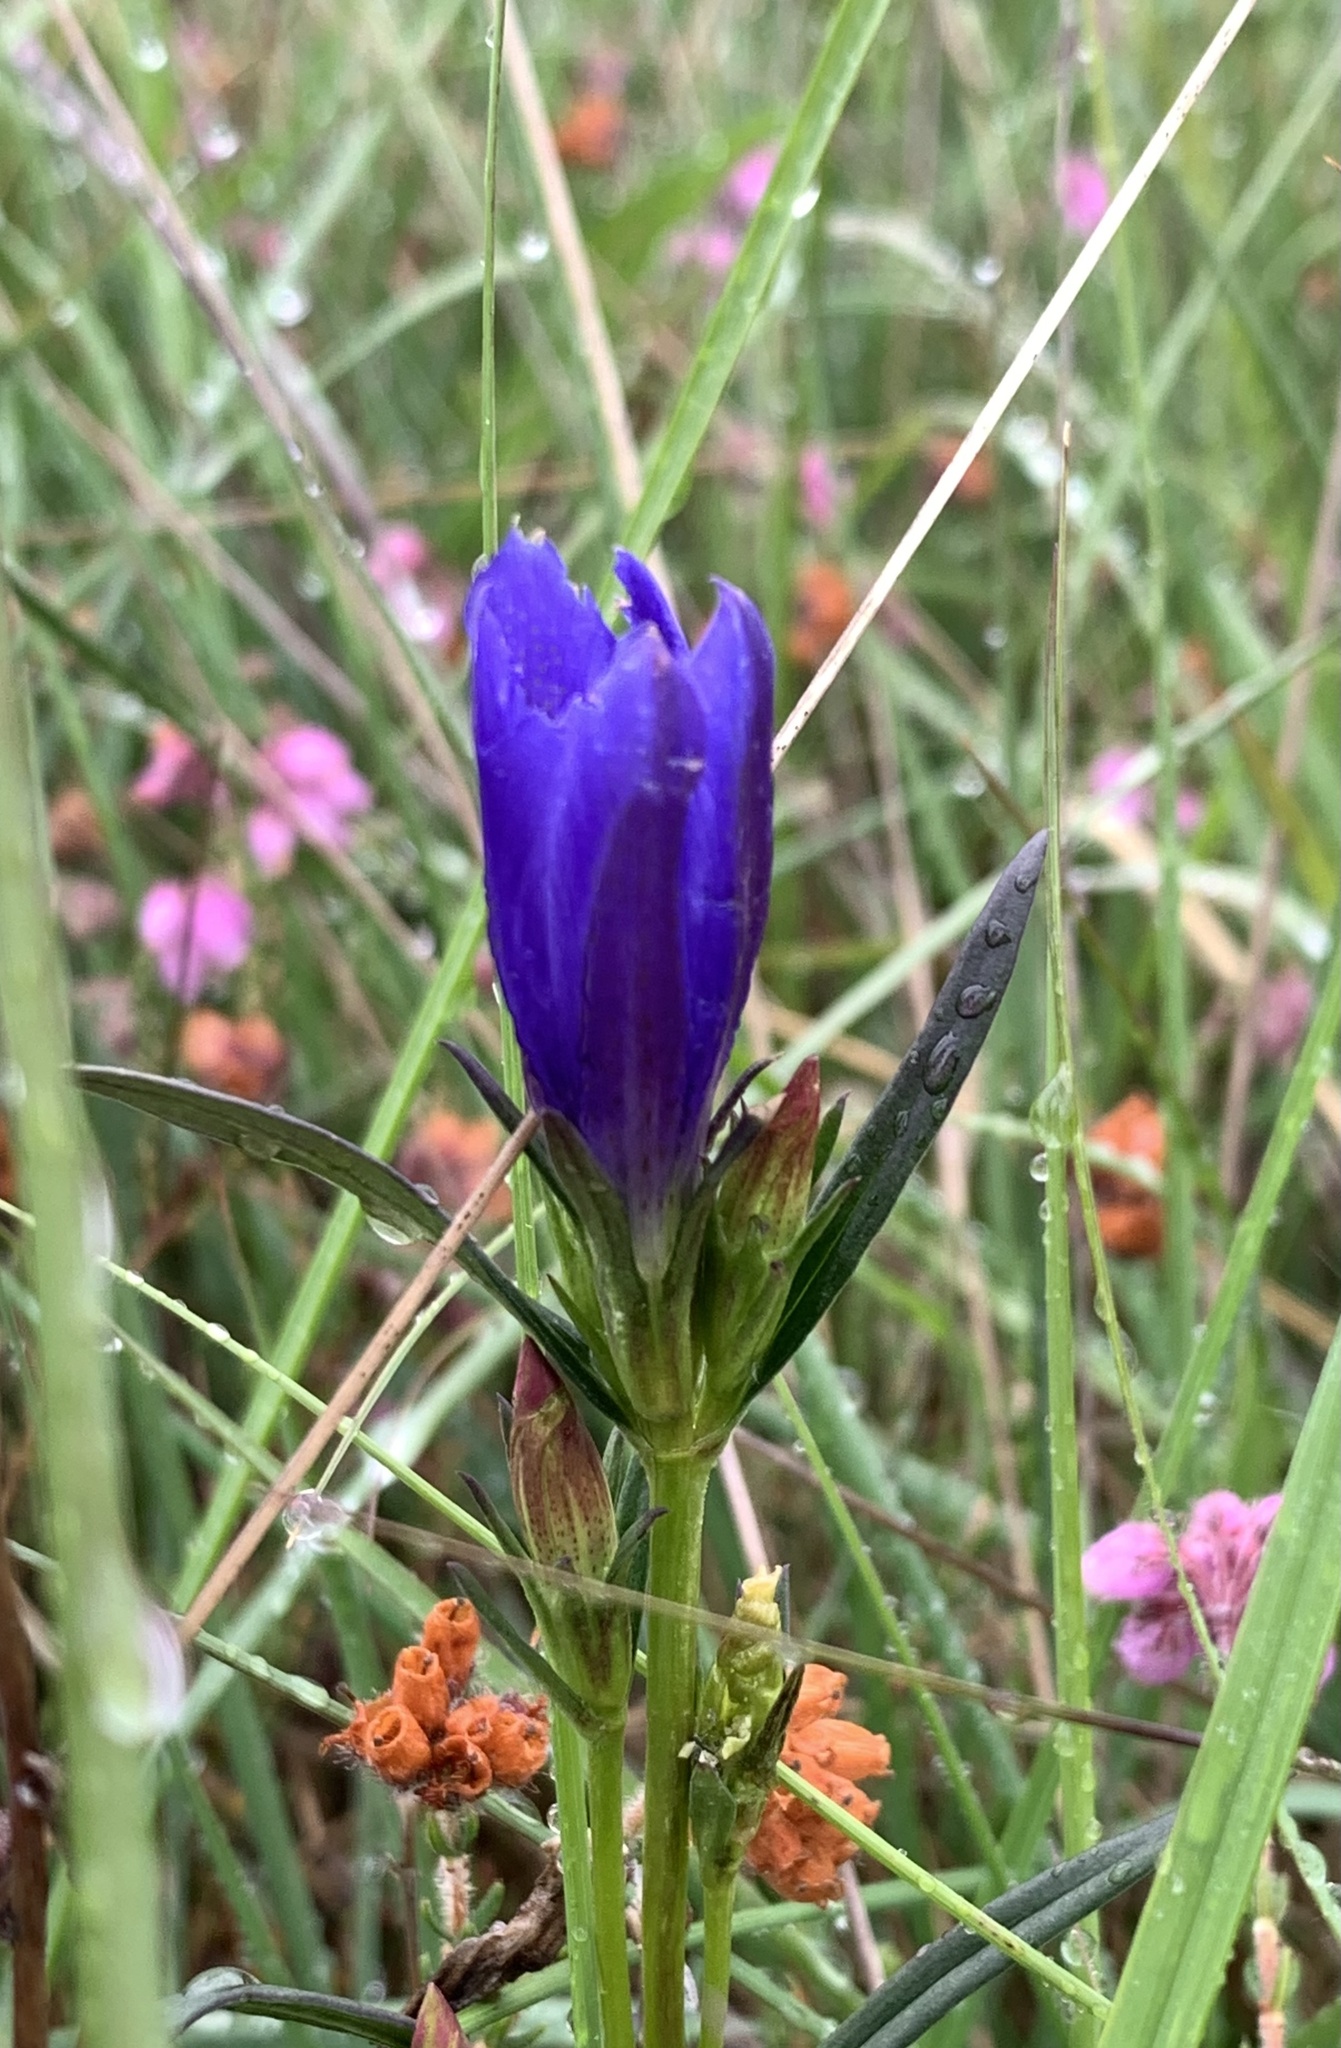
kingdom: Plantae
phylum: Tracheophyta
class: Magnoliopsida
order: Gentianales
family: Gentianaceae
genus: Gentiana
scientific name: Gentiana pneumonanthe
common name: Marsh gentian
